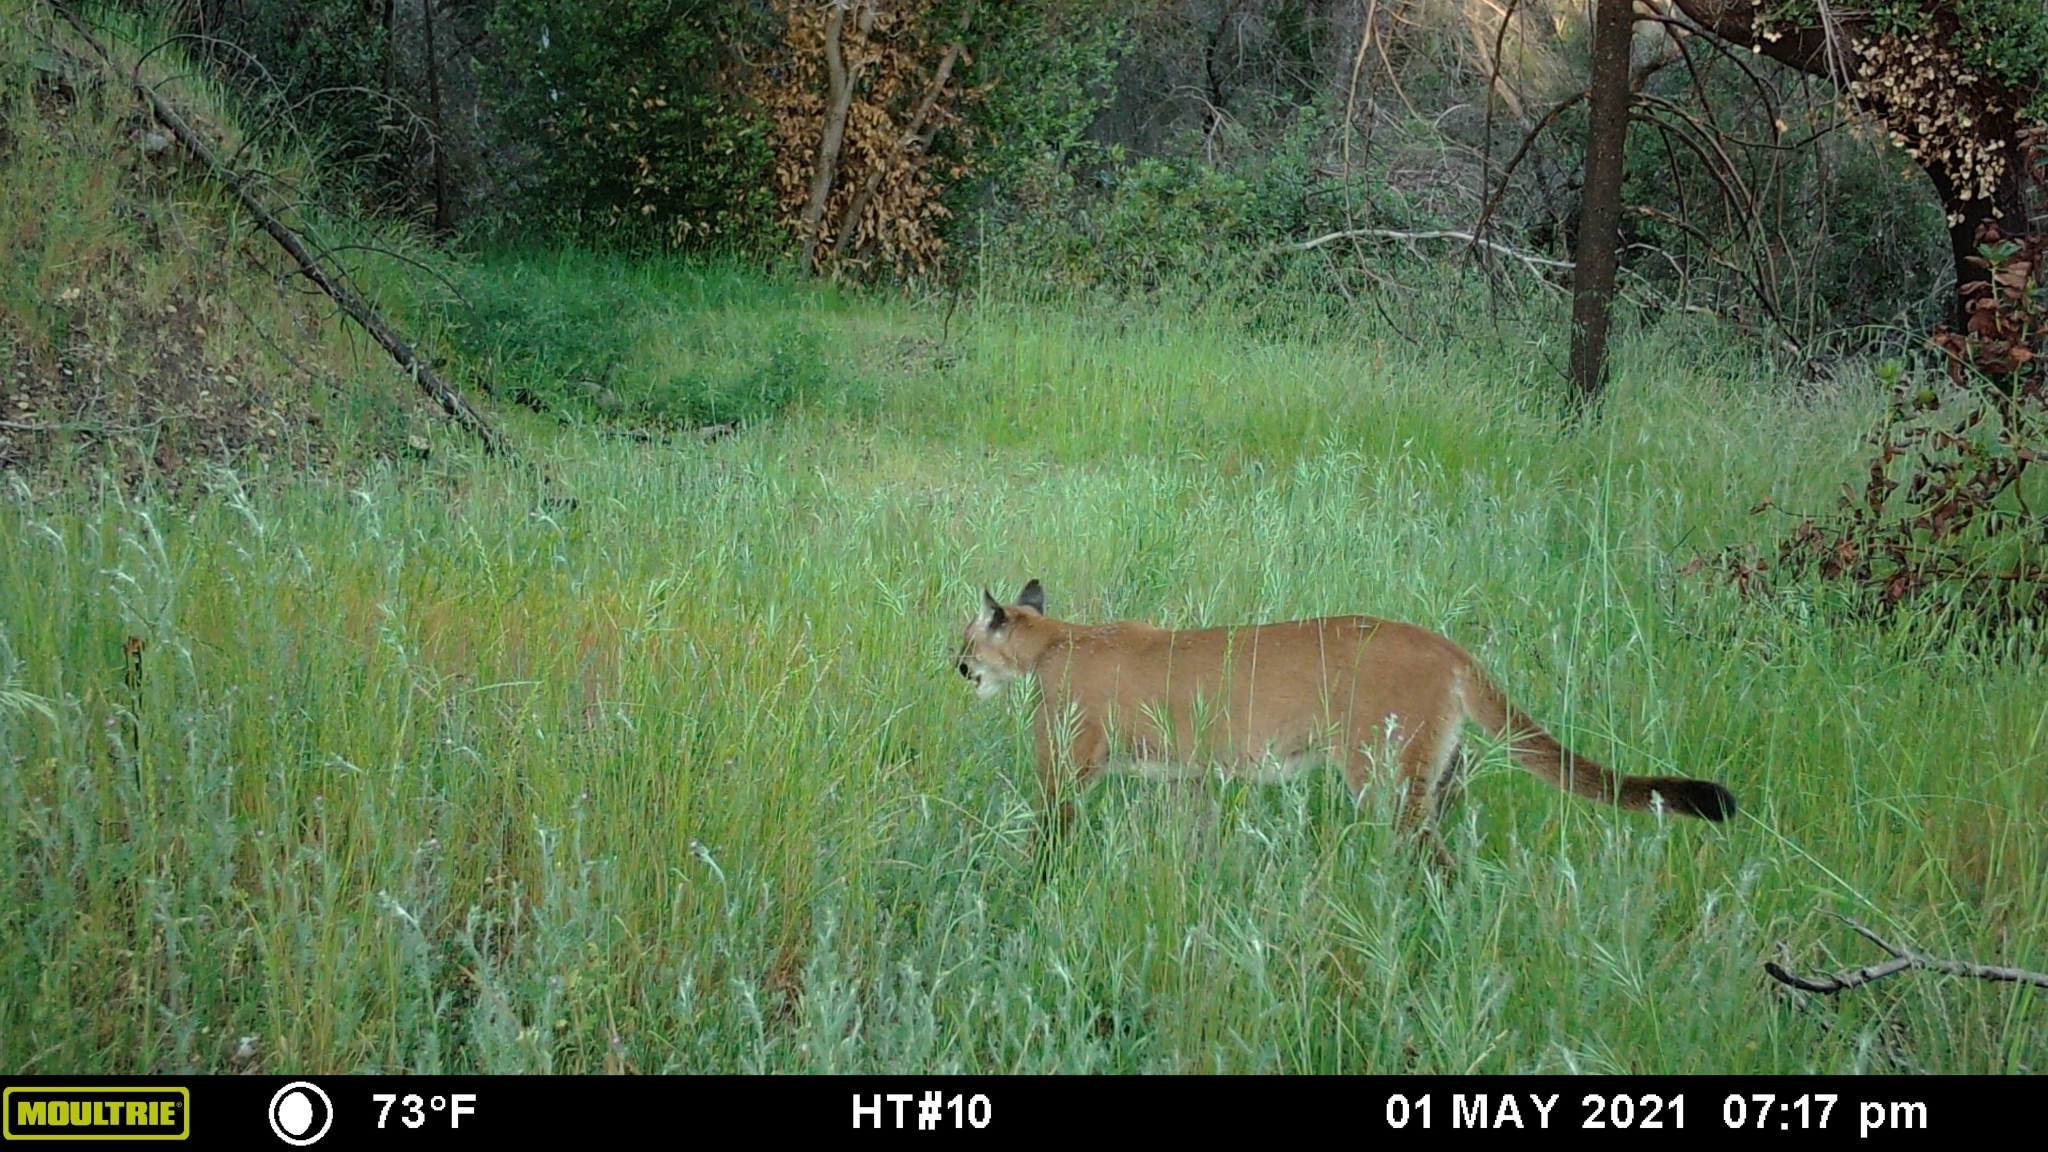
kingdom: Animalia
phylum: Chordata
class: Mammalia
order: Carnivora
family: Felidae
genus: Puma
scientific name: Puma concolor
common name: Puma
